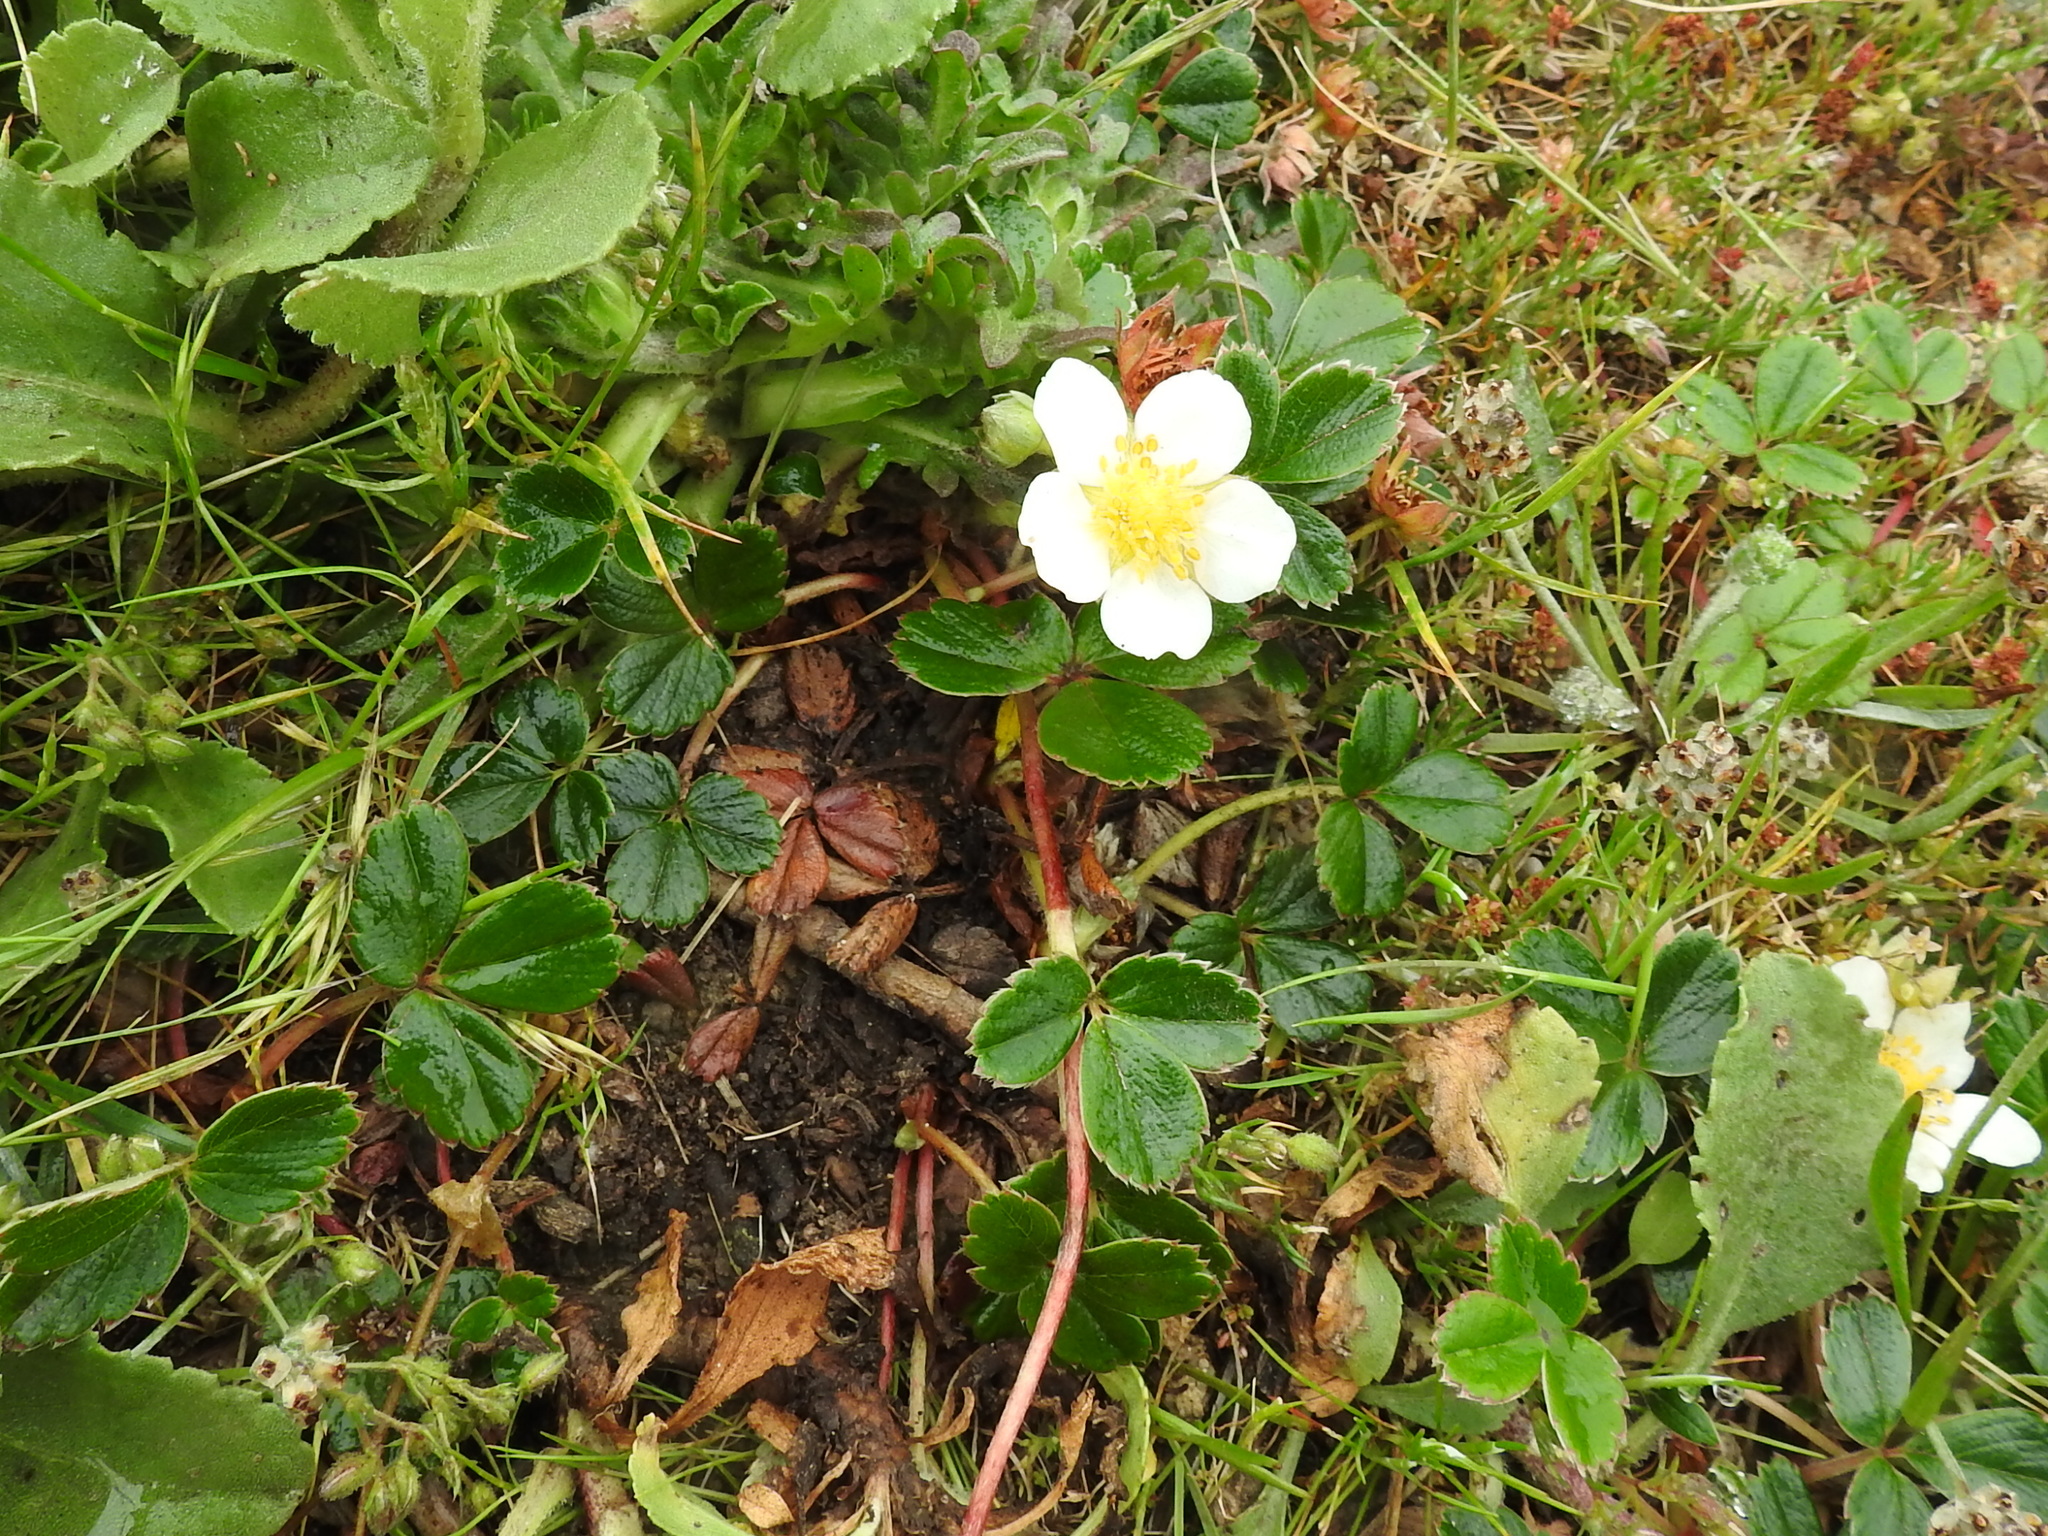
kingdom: Plantae
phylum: Tracheophyta
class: Magnoliopsida
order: Rosales
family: Rosaceae
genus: Fragaria
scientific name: Fragaria chiloensis
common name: Beach strawberry
